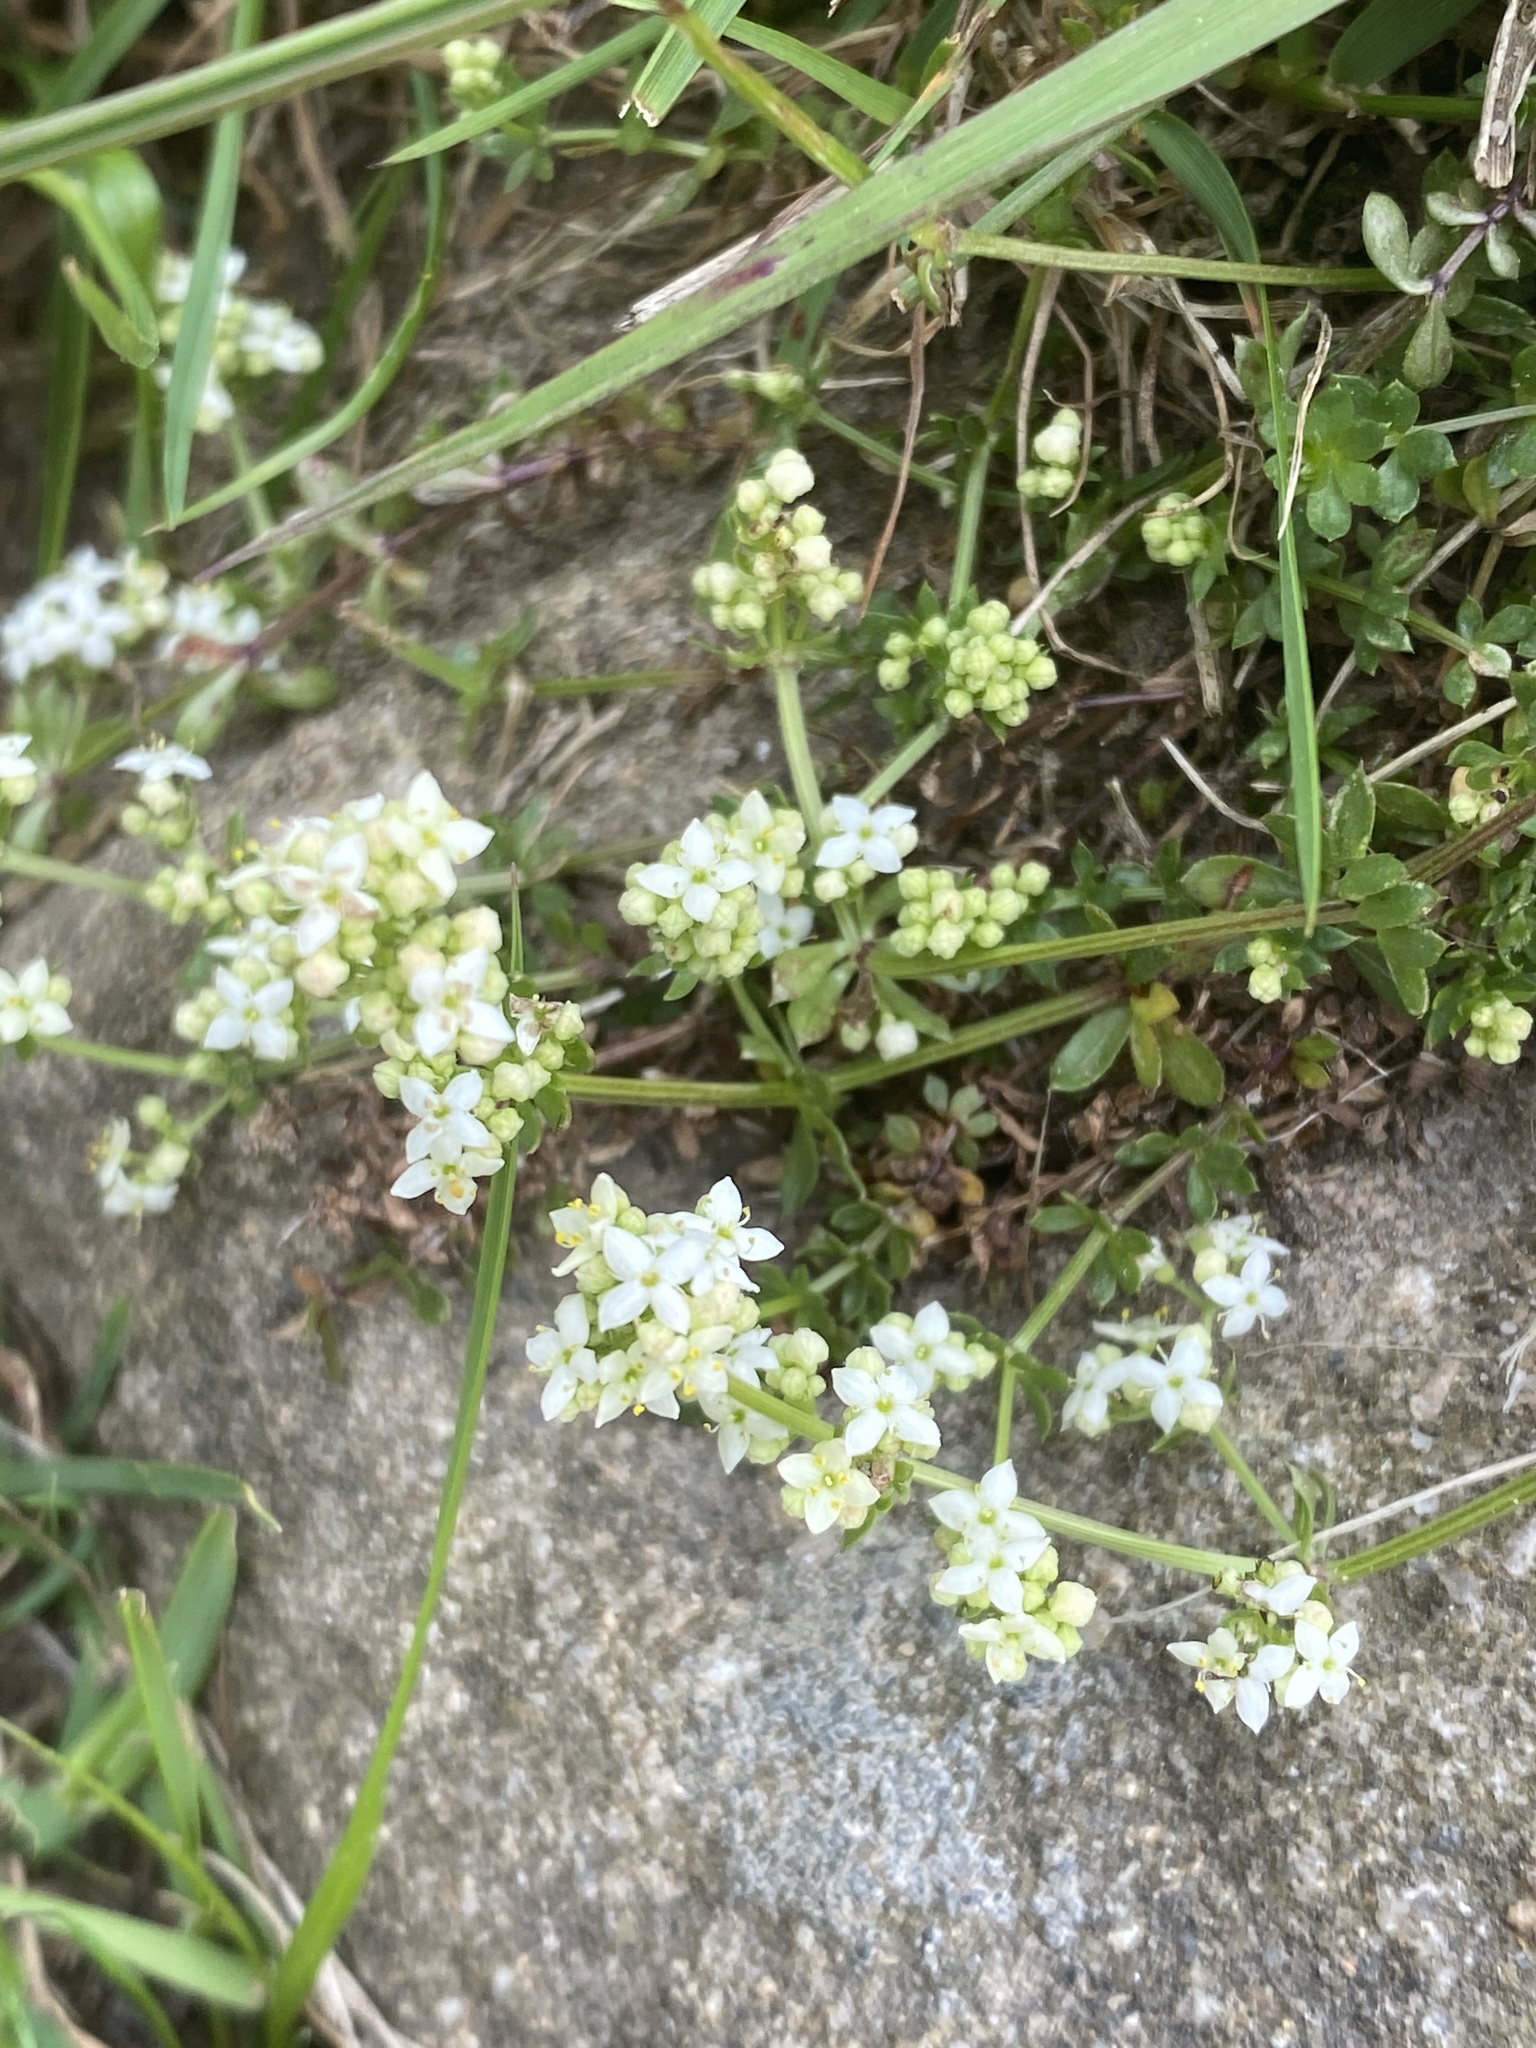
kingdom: Plantae
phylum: Tracheophyta
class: Magnoliopsida
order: Gentianales
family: Rubiaceae
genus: Galium
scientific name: Galium saxatile
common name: Heath bedstraw
